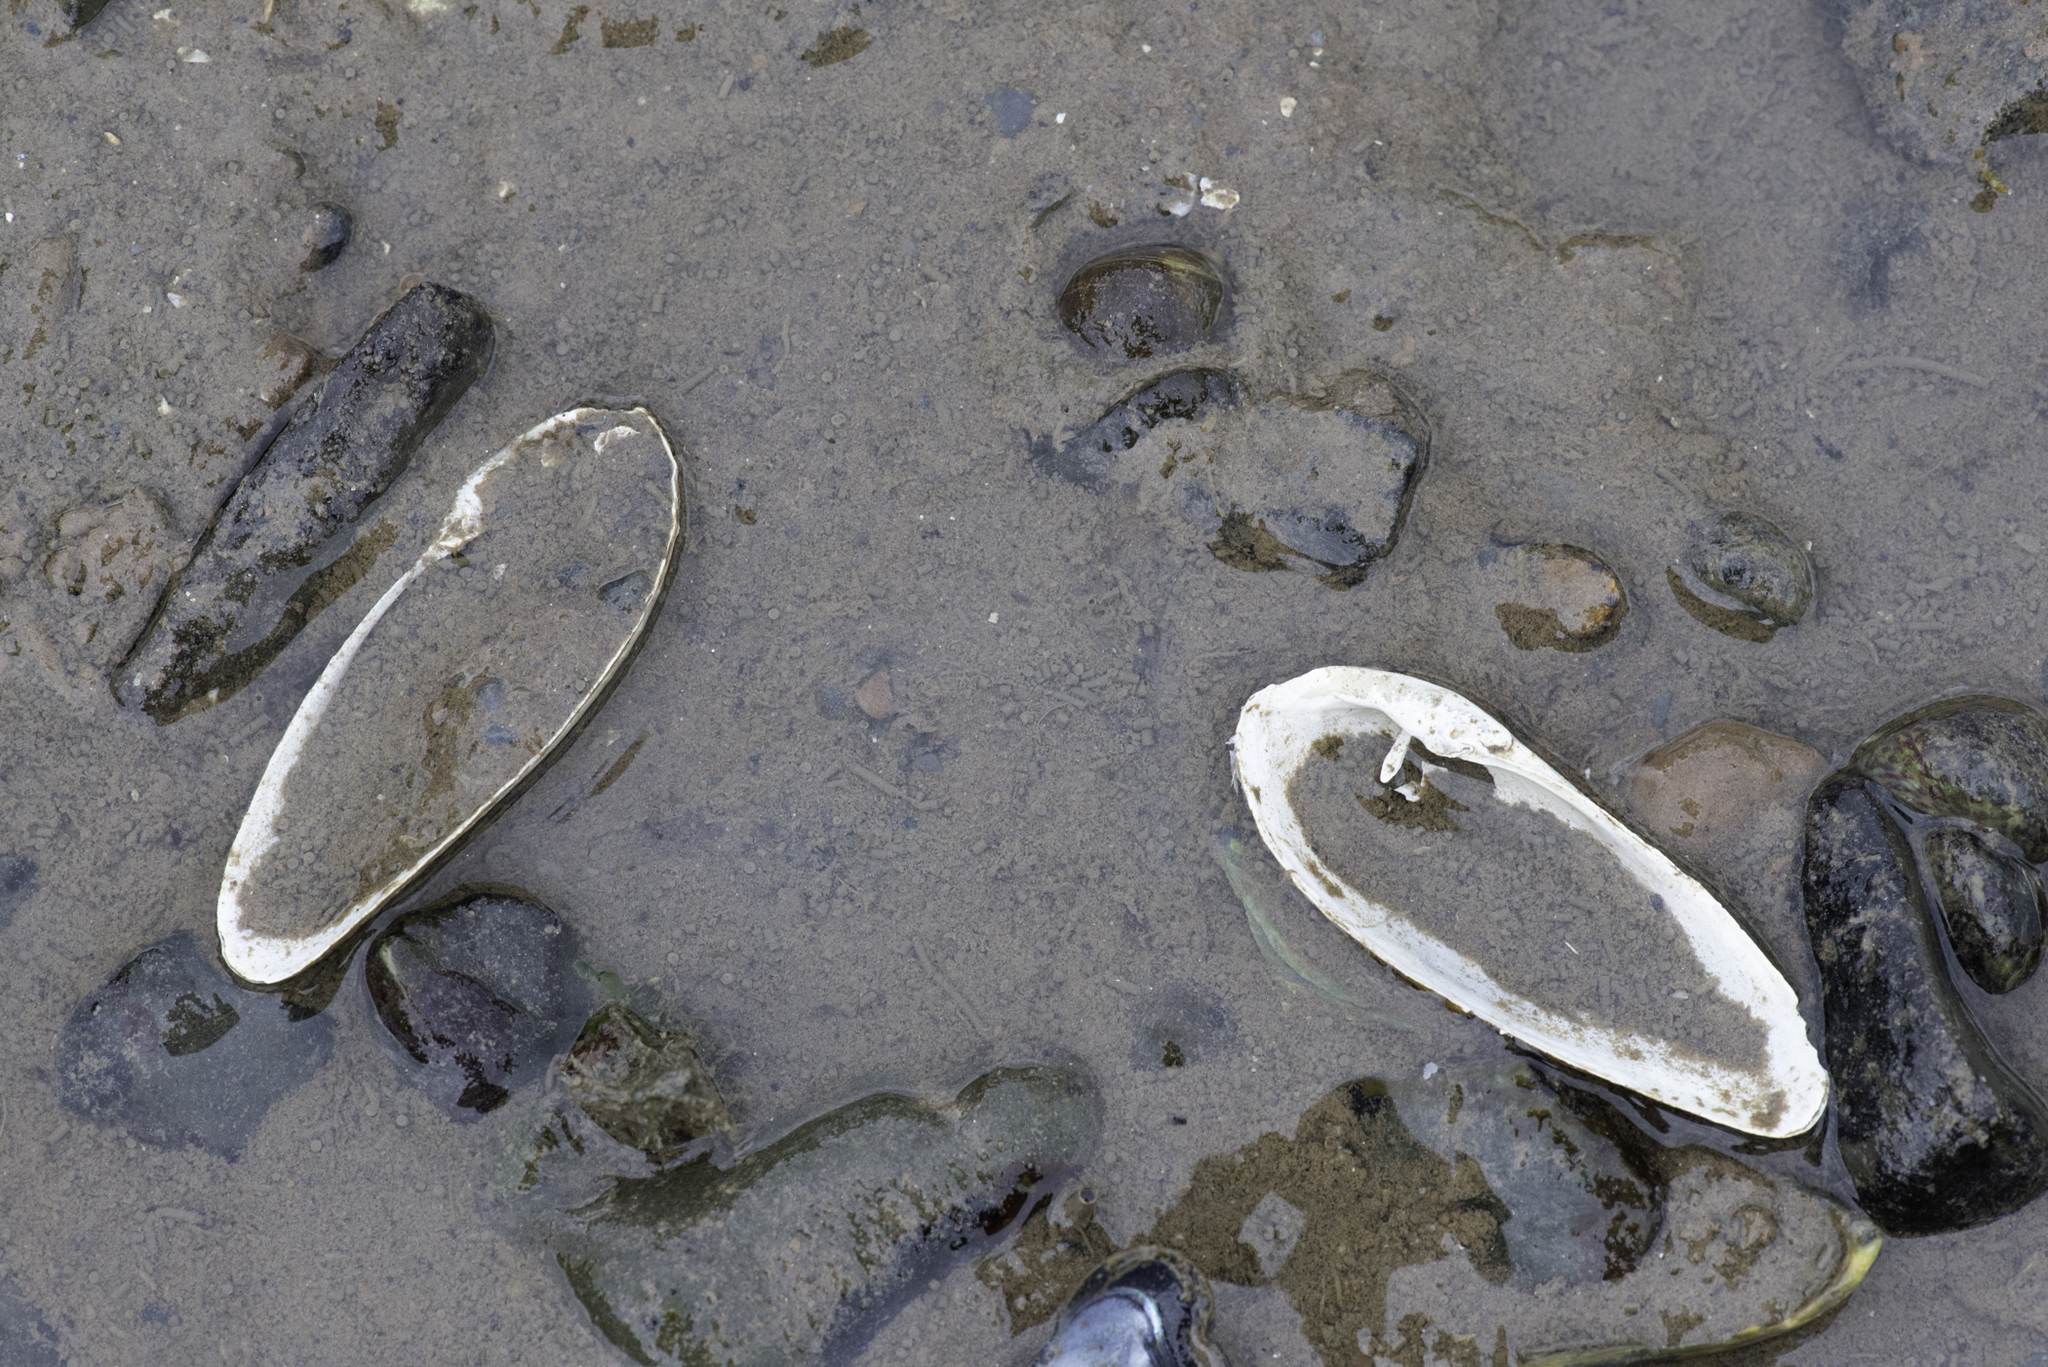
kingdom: Animalia
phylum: Mollusca
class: Bivalvia
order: Myida
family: Pholadidae
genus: Barnea
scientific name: Barnea candida
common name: White piddock
